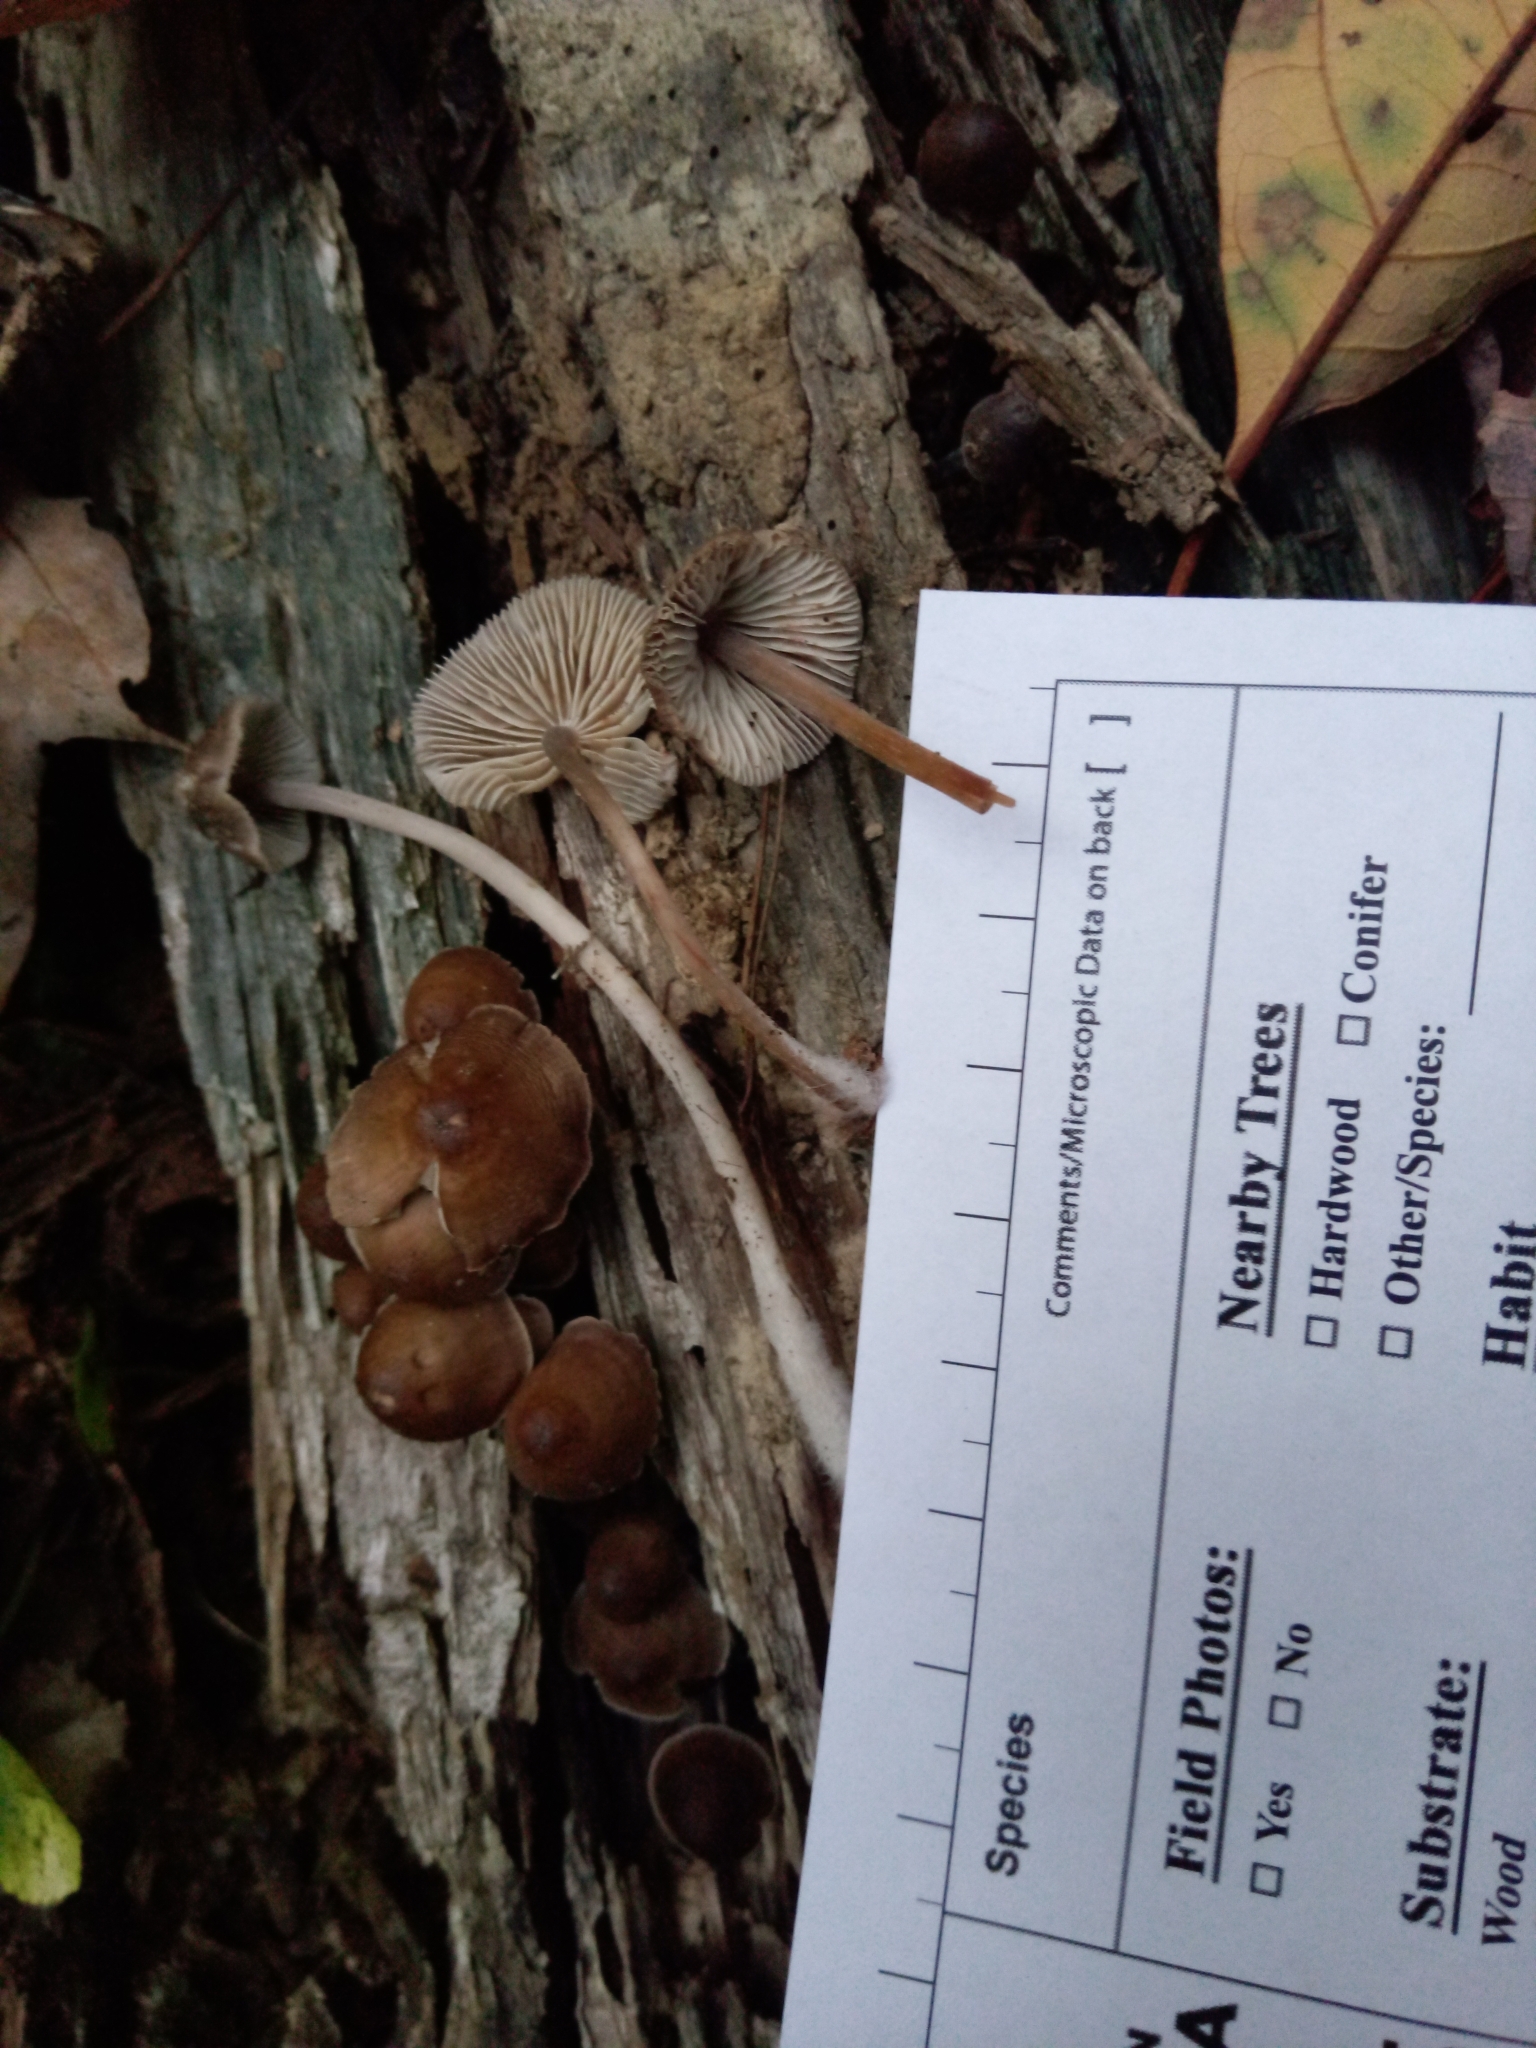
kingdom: Fungi
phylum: Basidiomycota
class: Agaricomycetes
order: Agaricales
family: Mycenaceae
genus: Mycena
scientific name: Mycena maculata
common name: Stained bonnet
